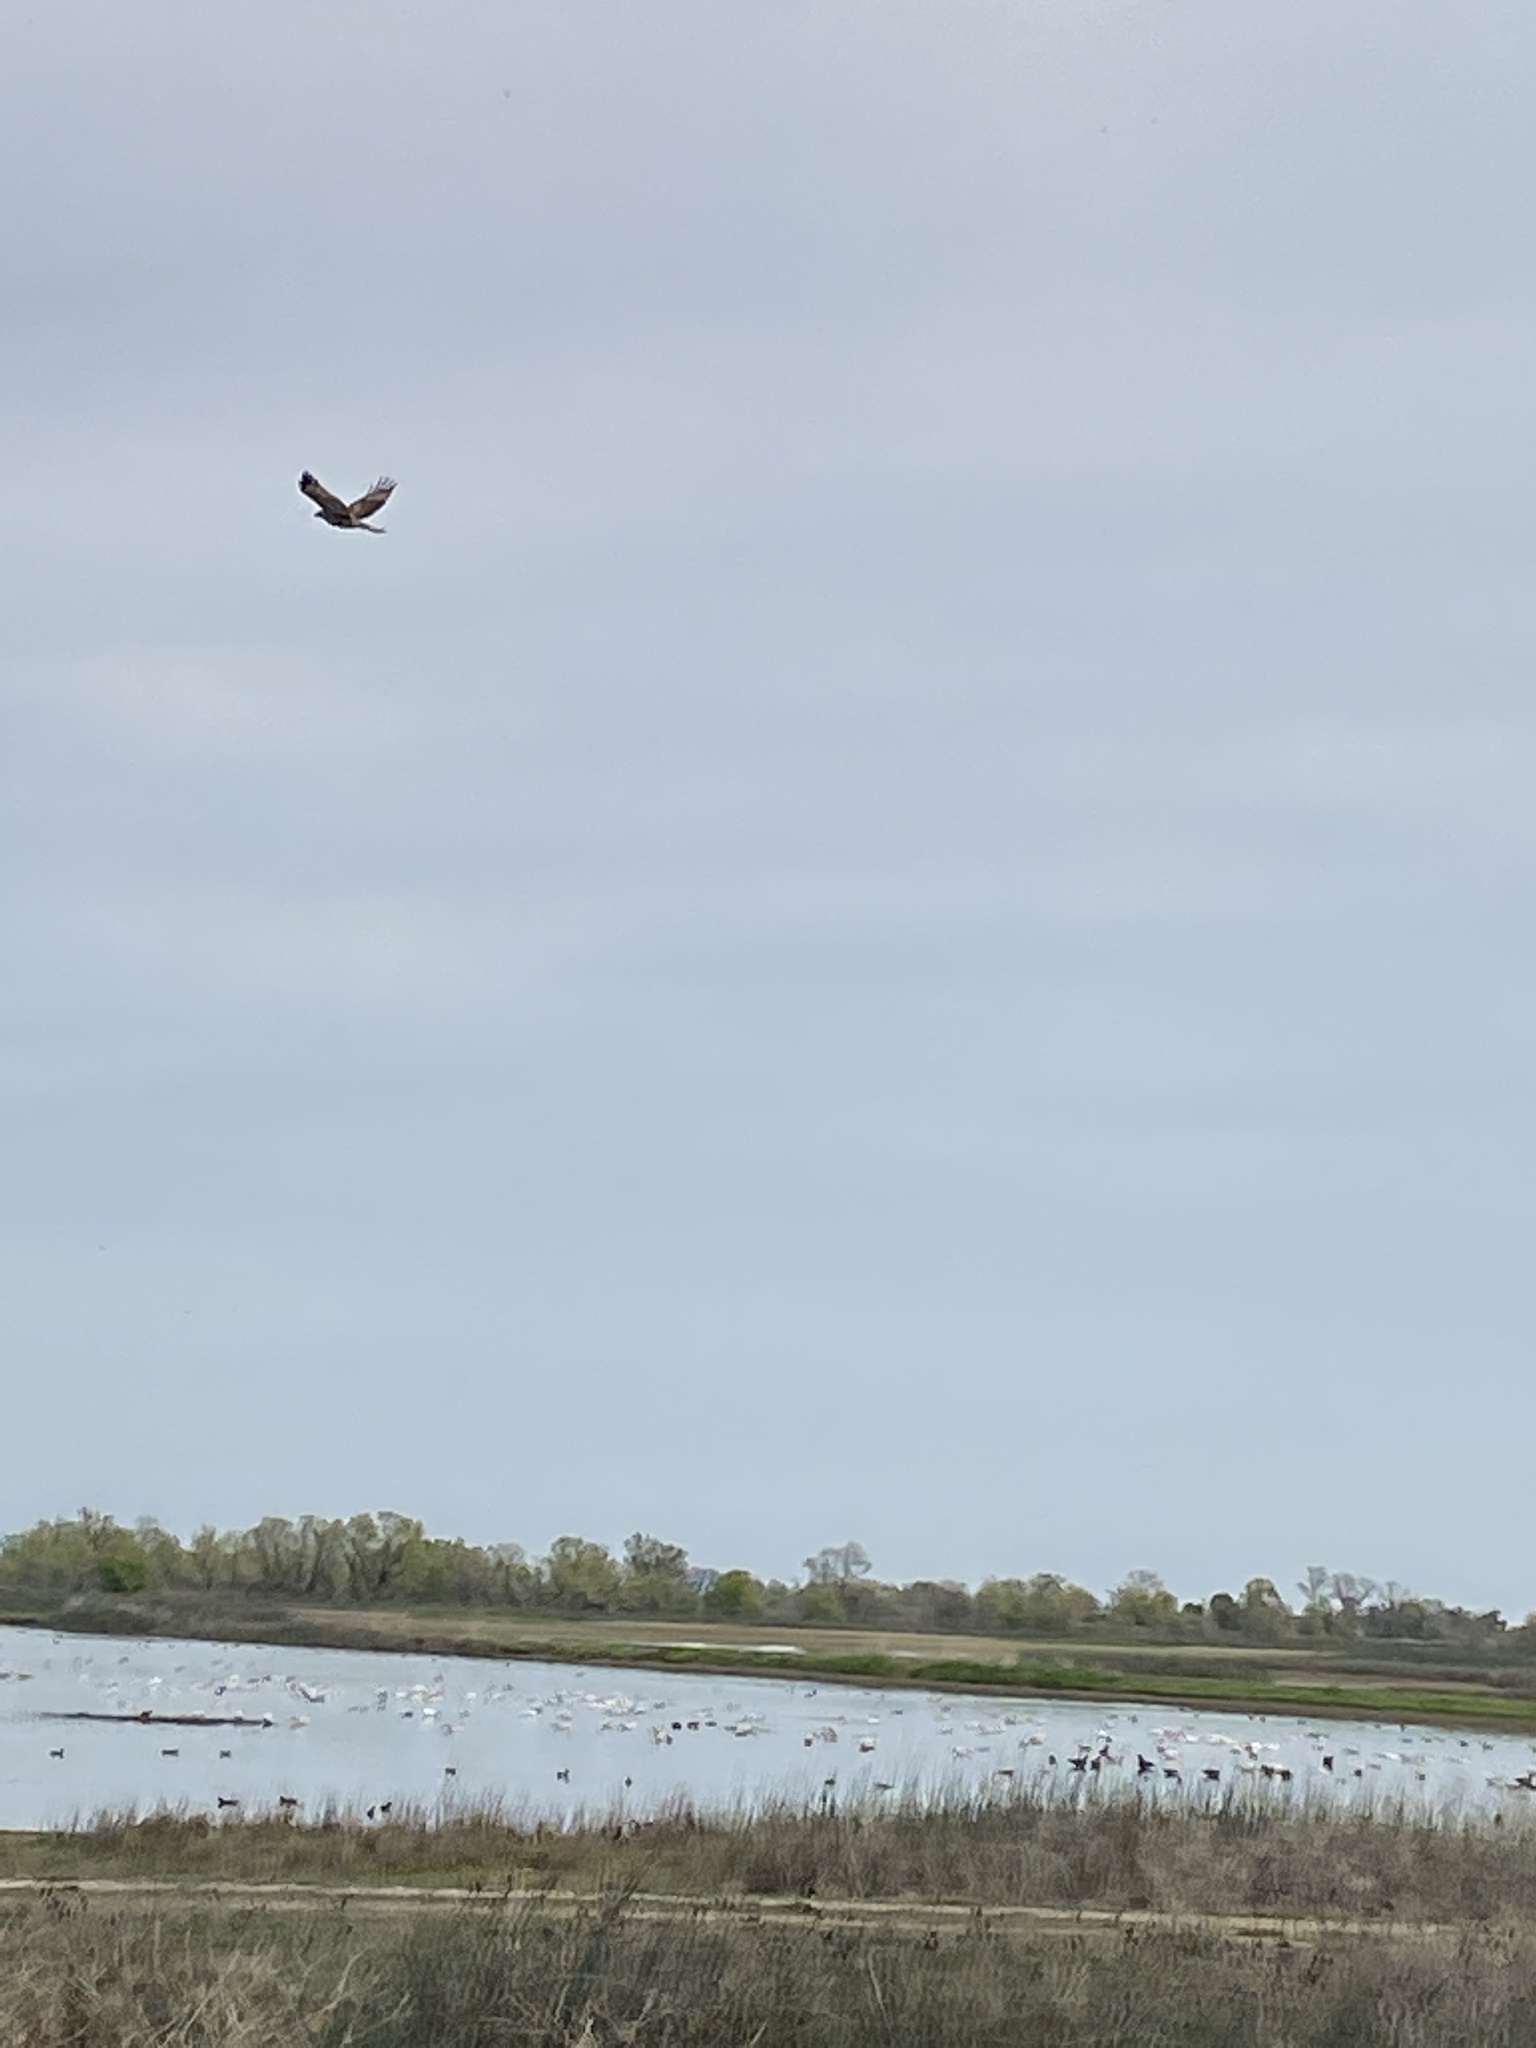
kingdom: Animalia
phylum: Chordata
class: Aves
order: Accipitriformes
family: Accipitridae
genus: Buteo
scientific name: Buteo jamaicensis
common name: Red-tailed hawk
